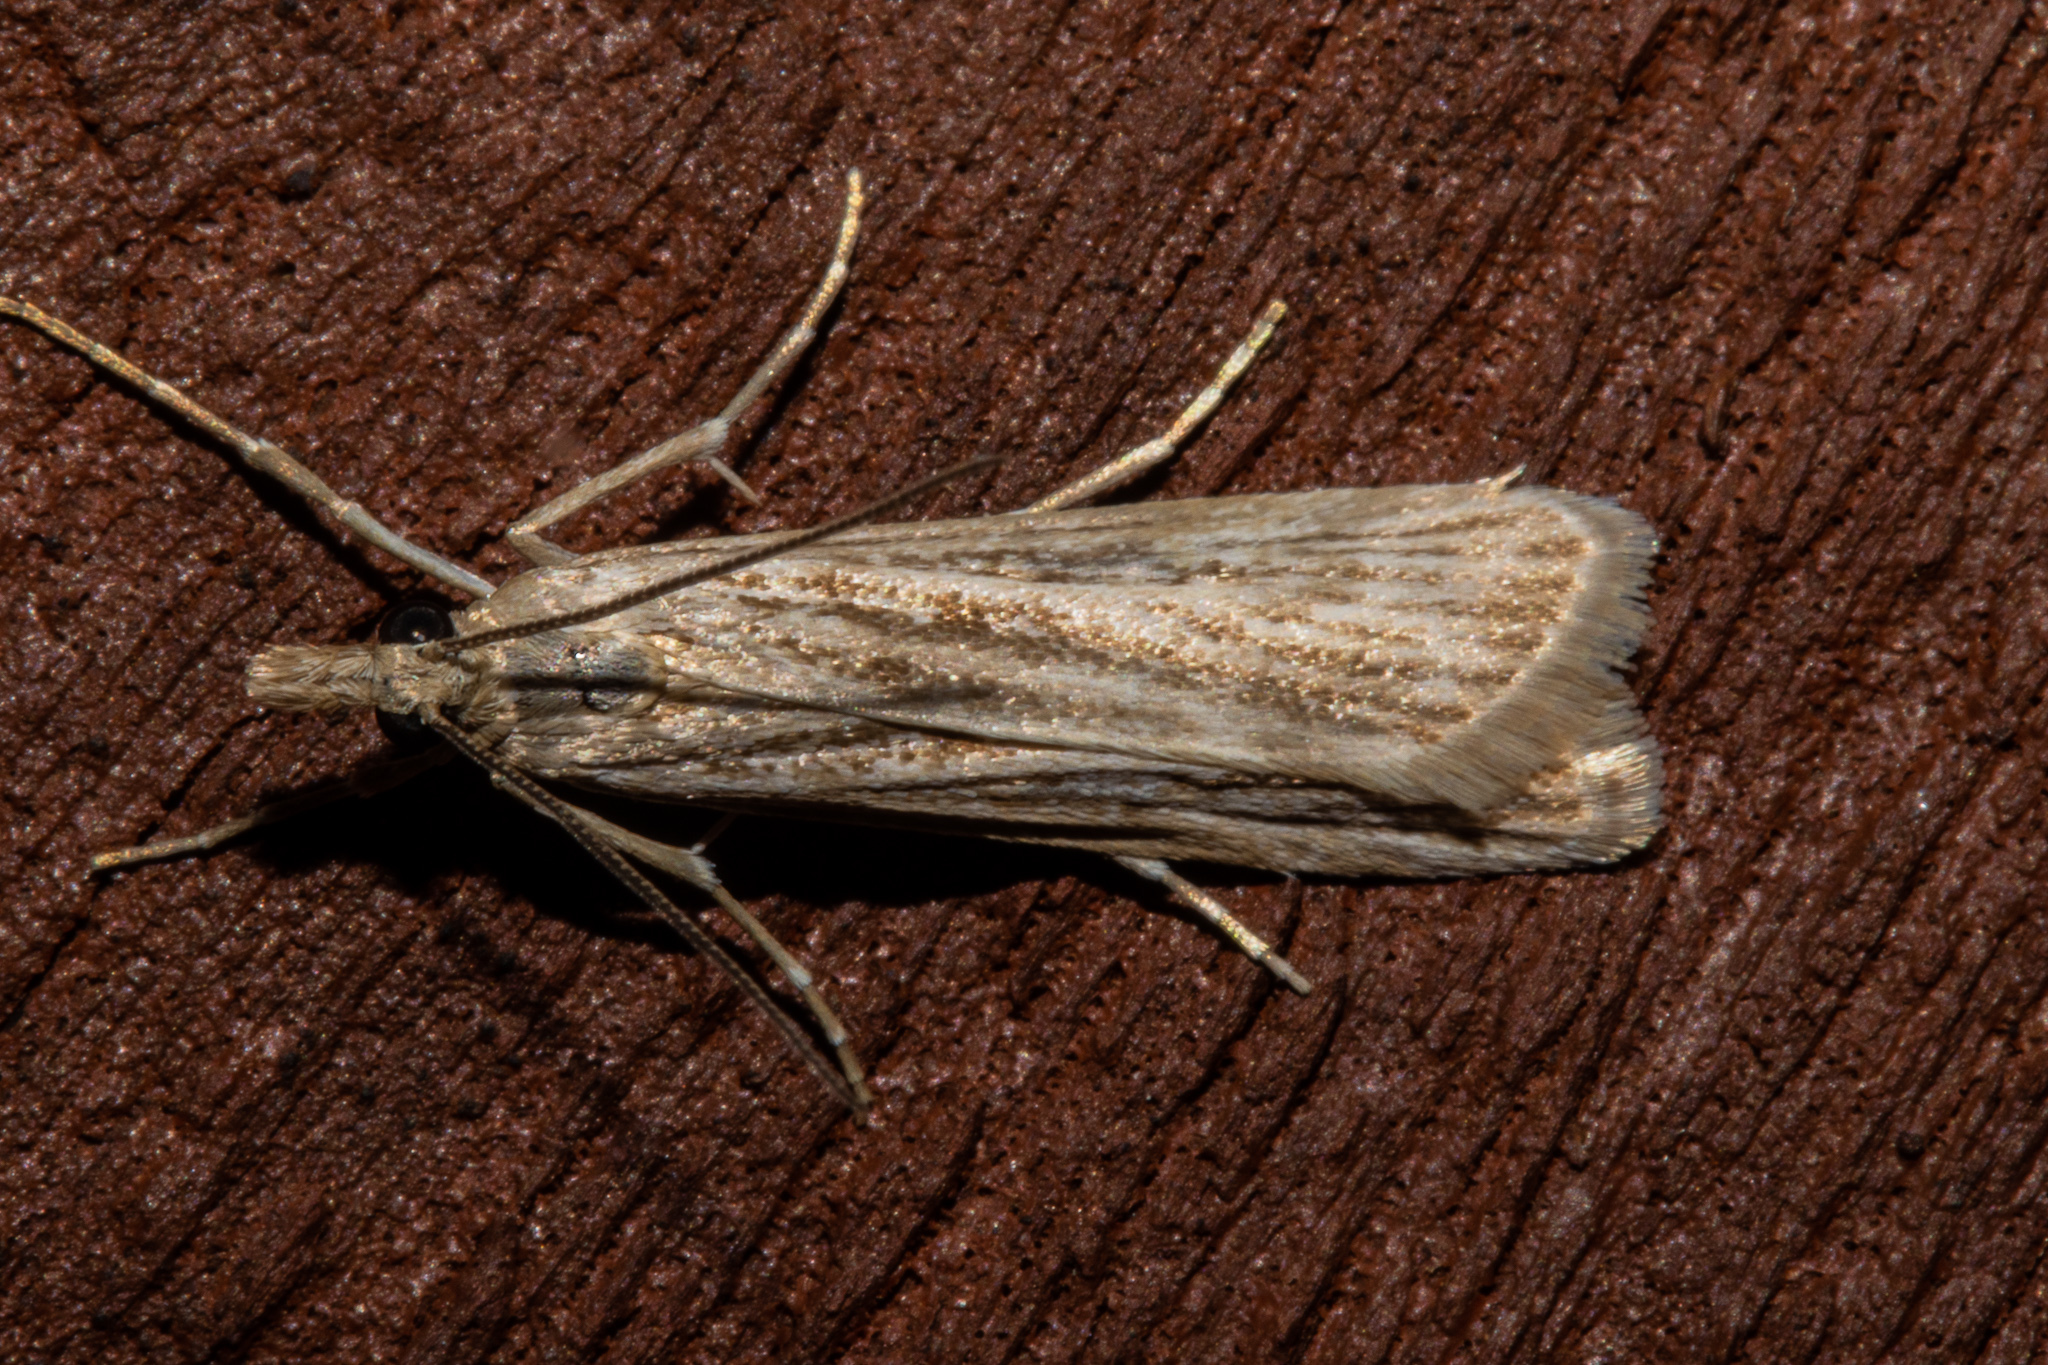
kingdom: Animalia
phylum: Arthropoda
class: Insecta
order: Lepidoptera
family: Crambidae
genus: Eudonia
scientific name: Eudonia atmogramma
